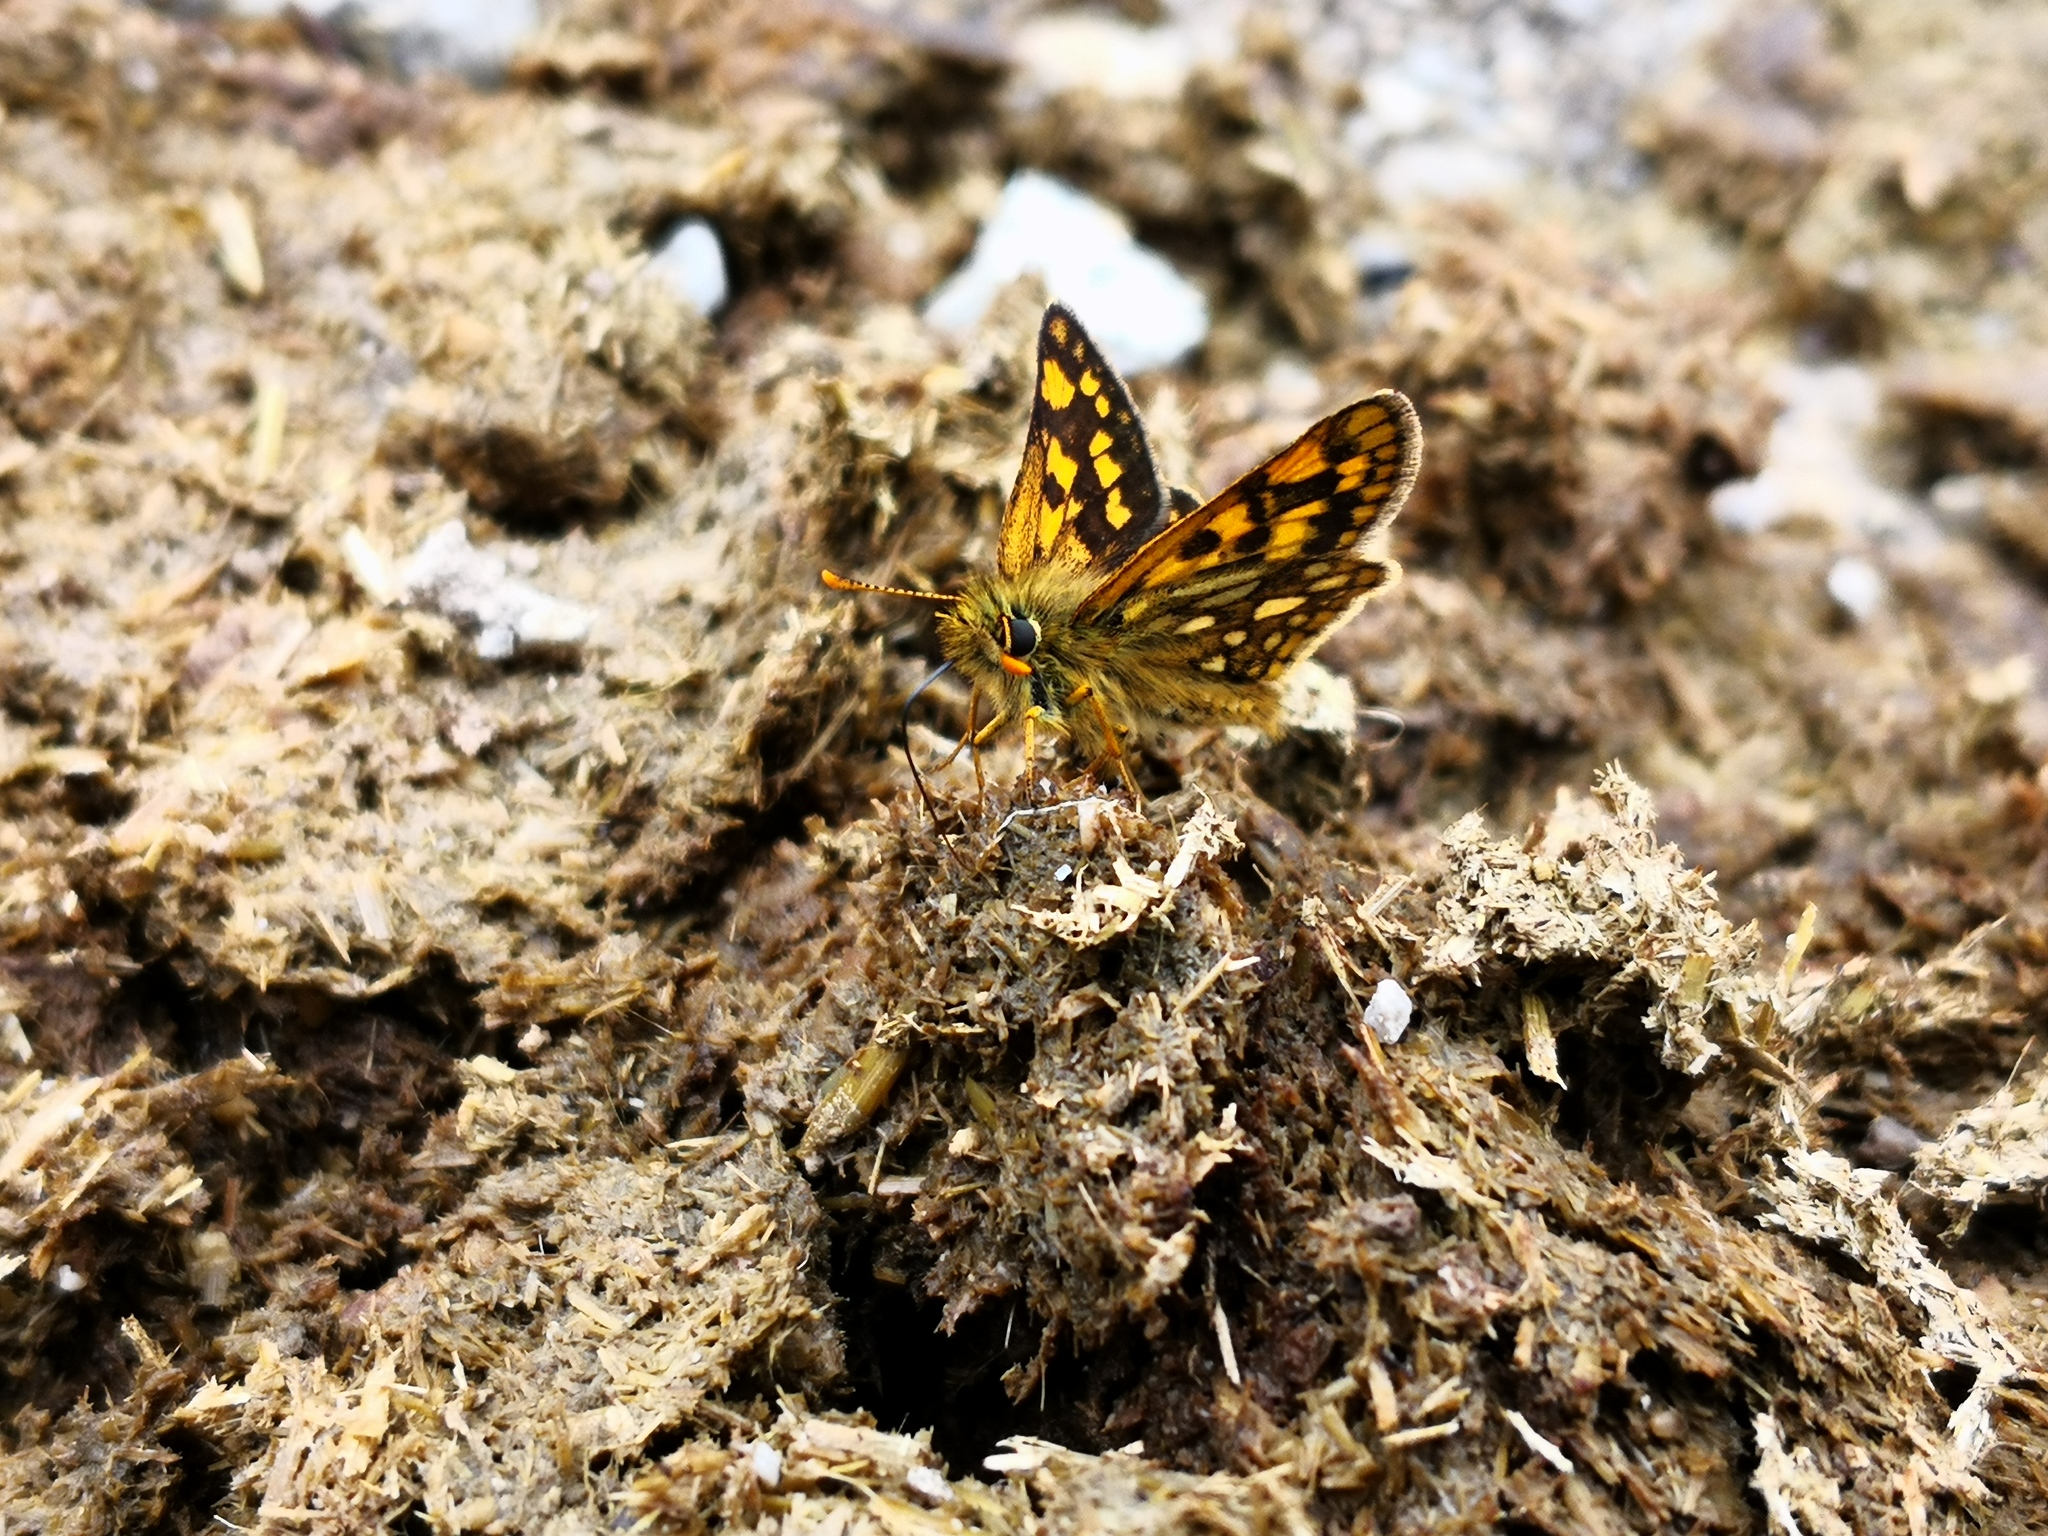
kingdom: Animalia
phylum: Arthropoda
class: Insecta
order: Lepidoptera
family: Hesperiidae
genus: Carterocephalus
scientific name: Carterocephalus palaemon
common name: Chequered skipper
